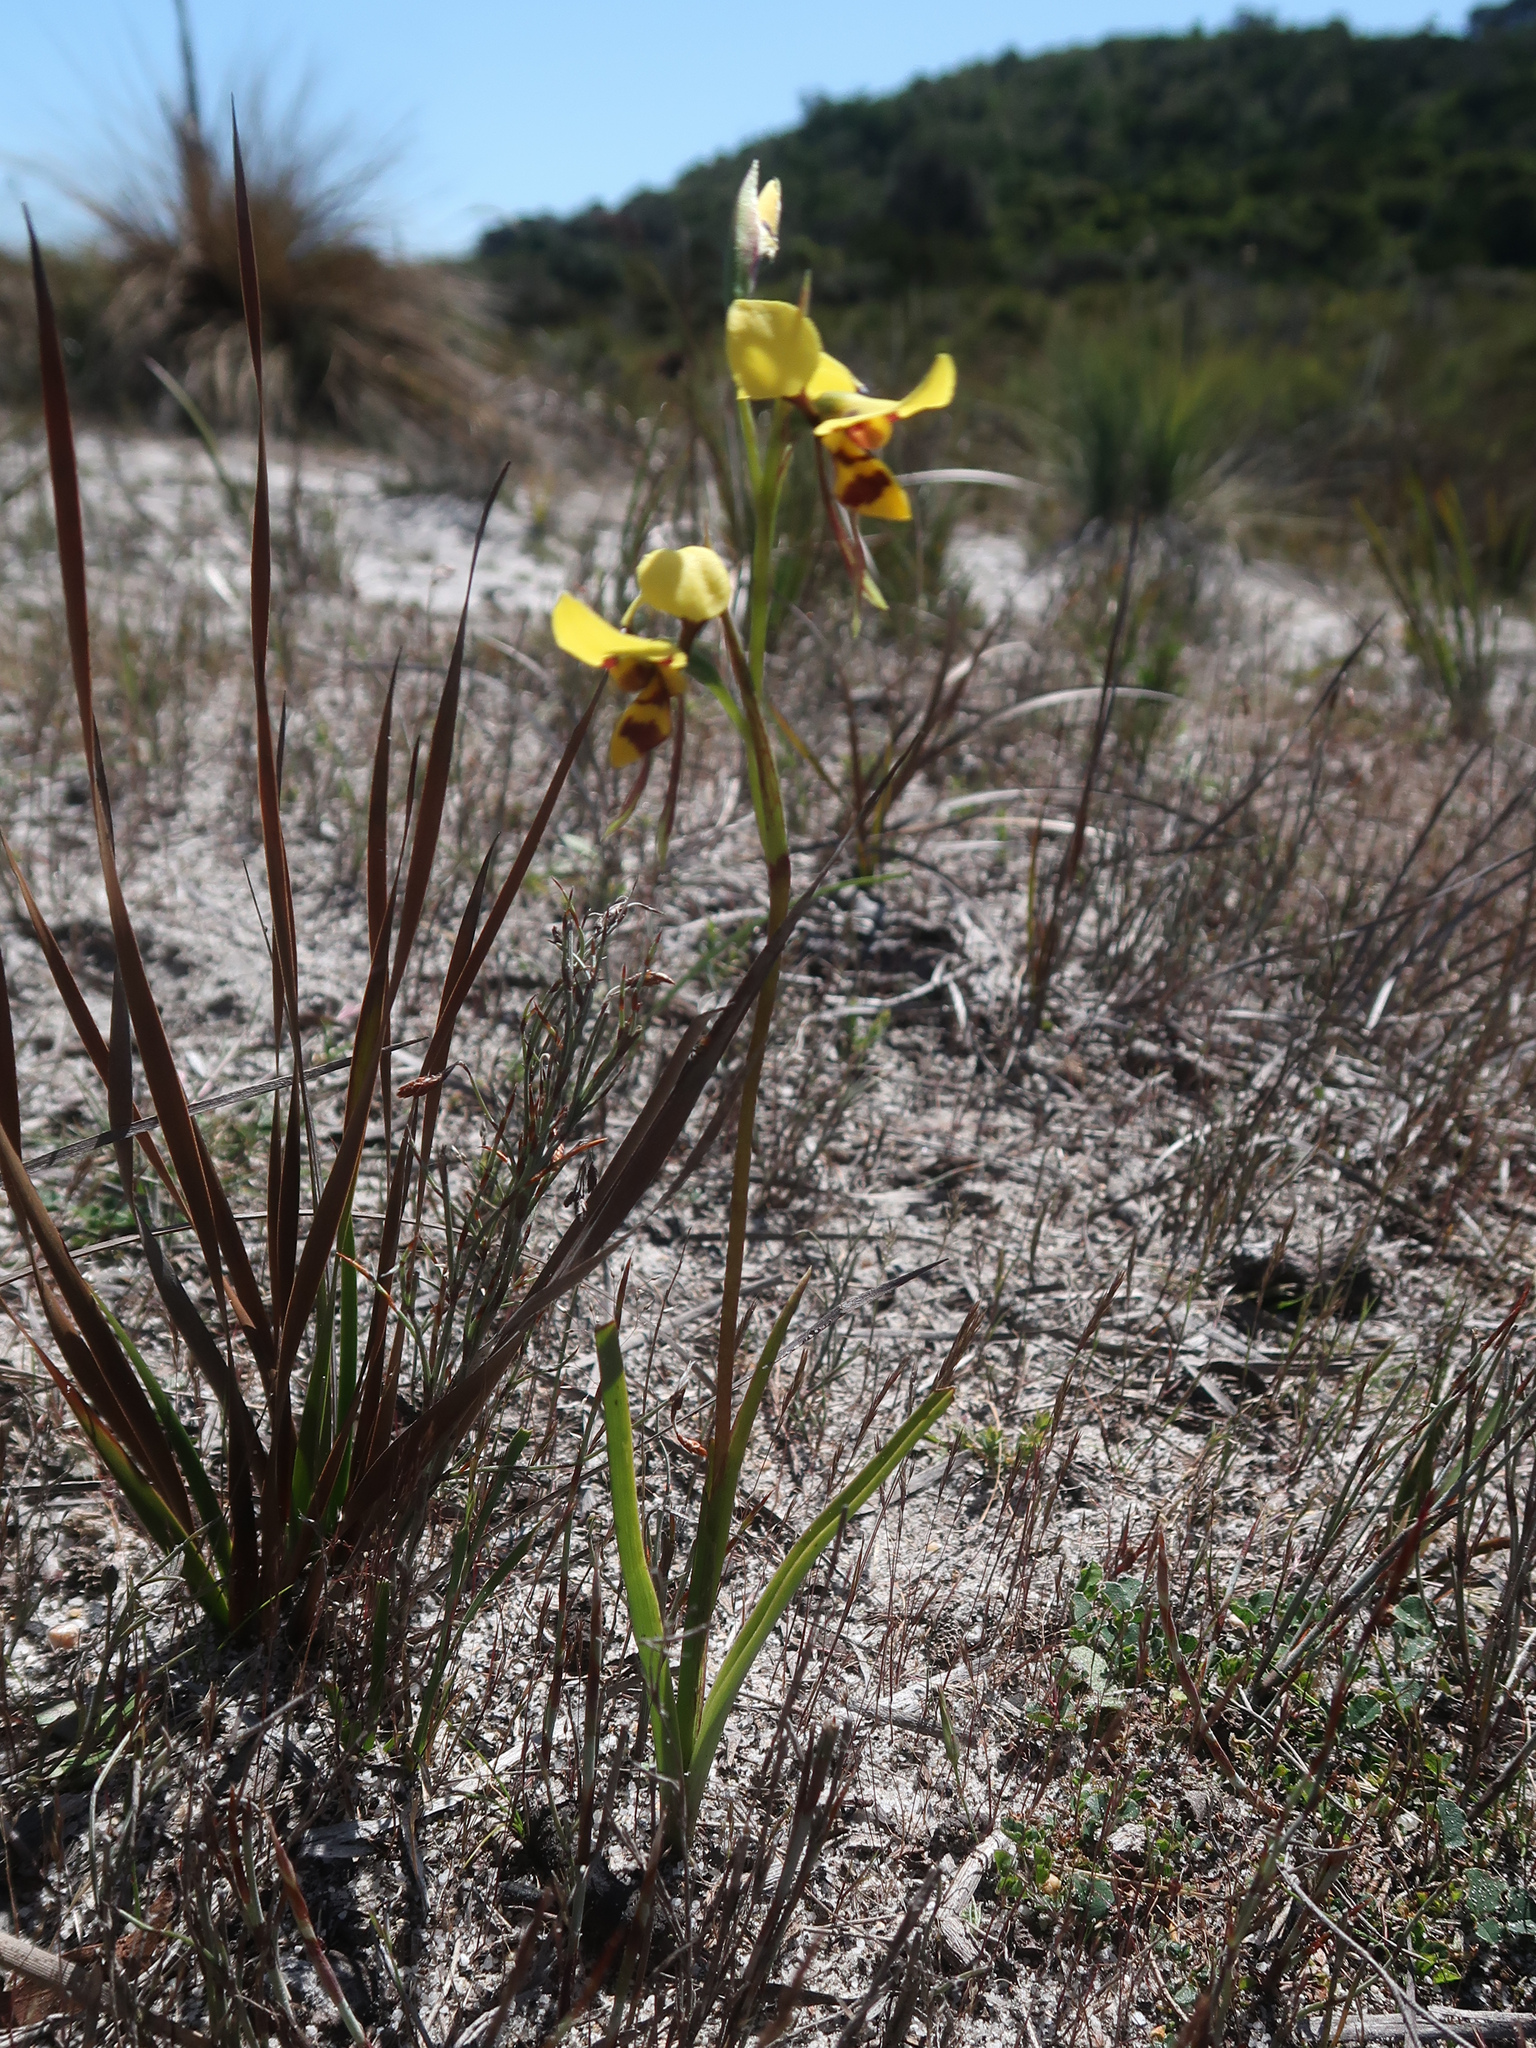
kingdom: Plantae
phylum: Tracheophyta
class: Liliopsida
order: Asparagales
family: Orchidaceae
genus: Diuris
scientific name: Diuris sulphurea
